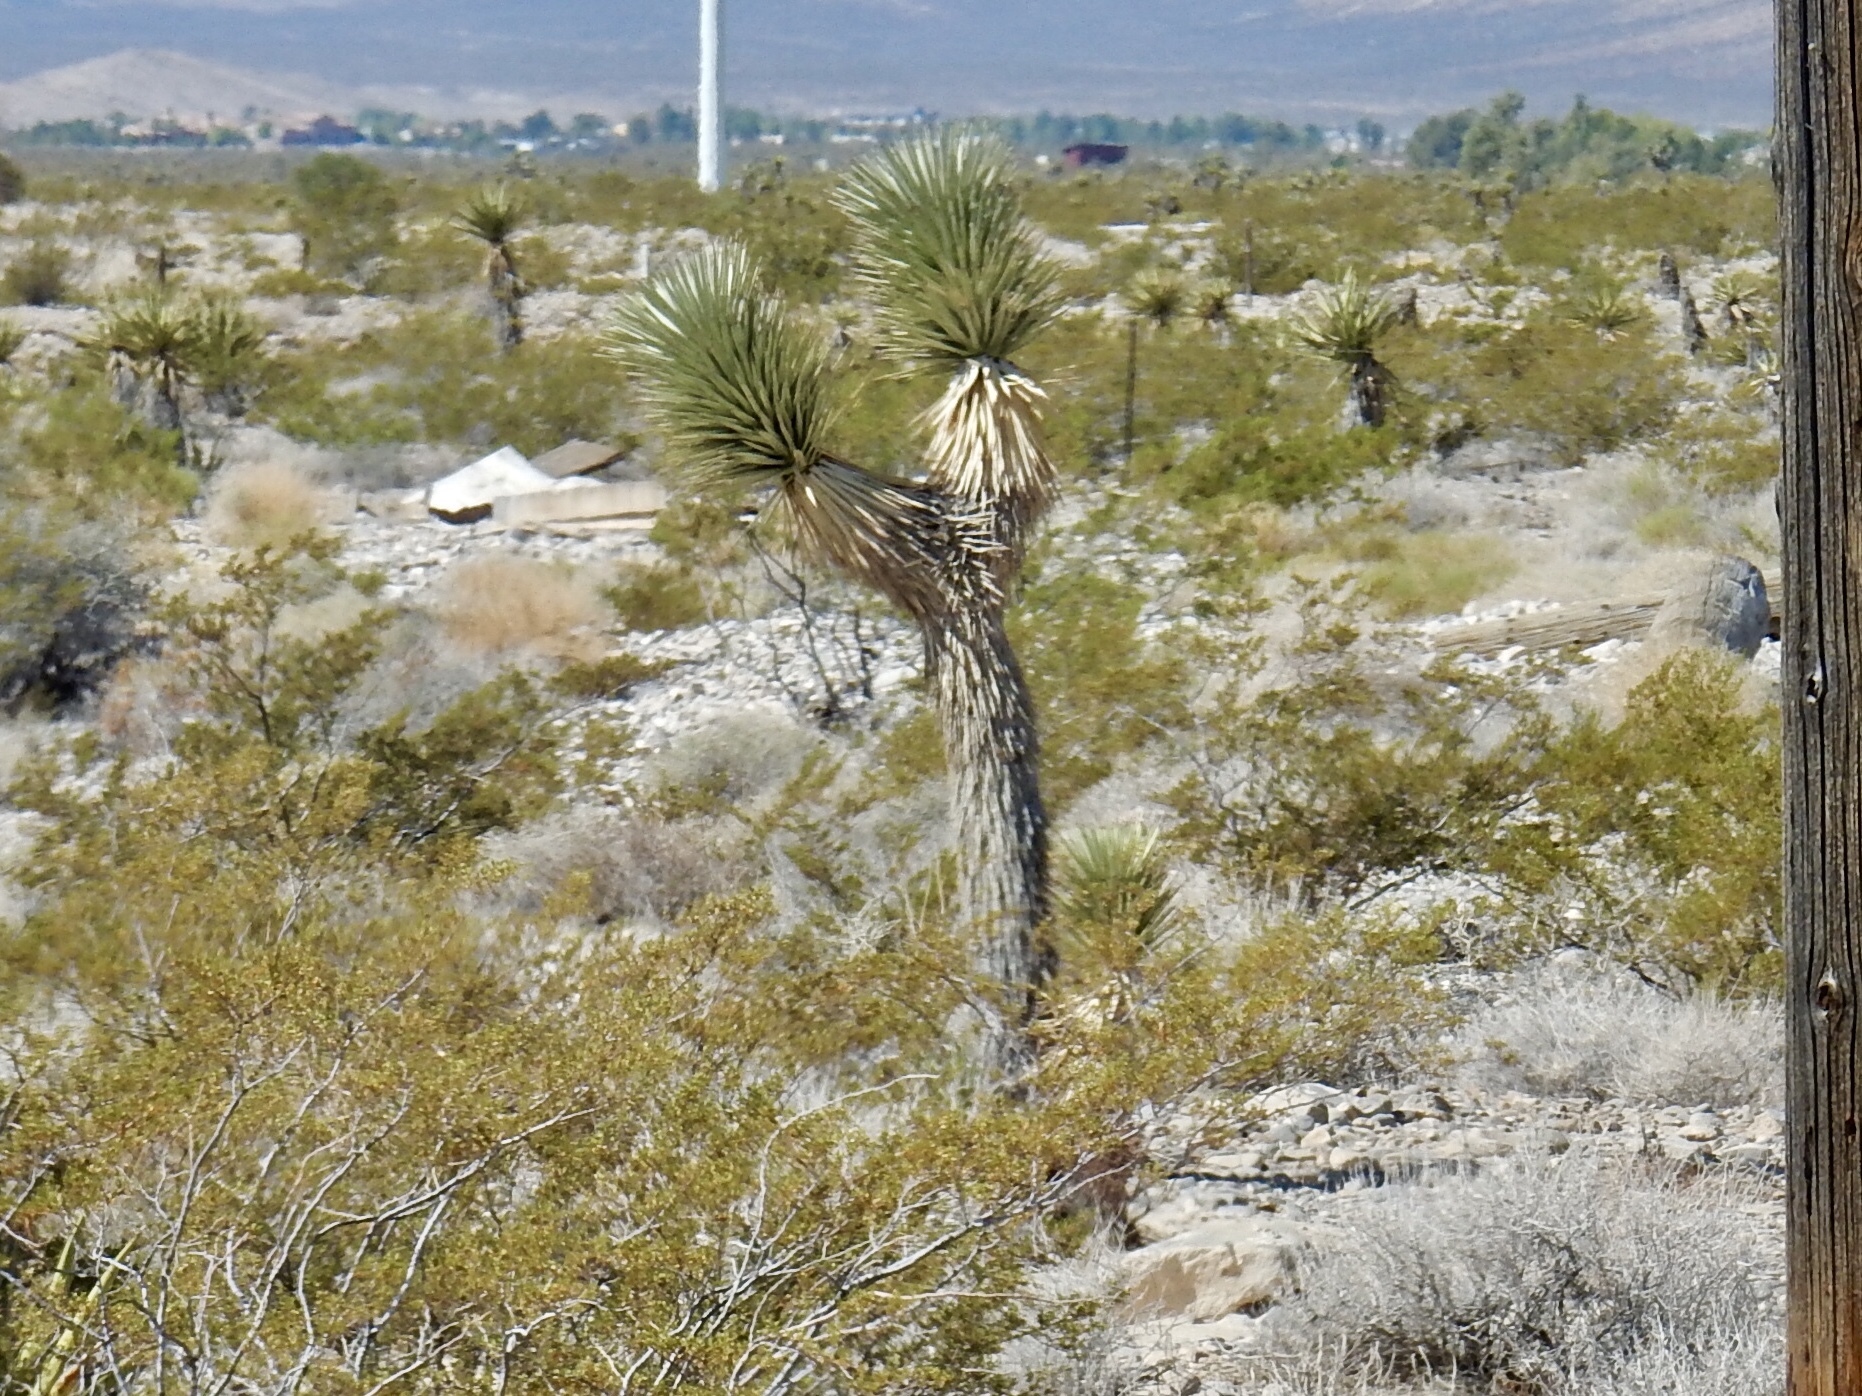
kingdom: Plantae
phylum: Tracheophyta
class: Liliopsida
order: Asparagales
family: Asparagaceae
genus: Yucca
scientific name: Yucca brevifolia
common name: Joshua tree
